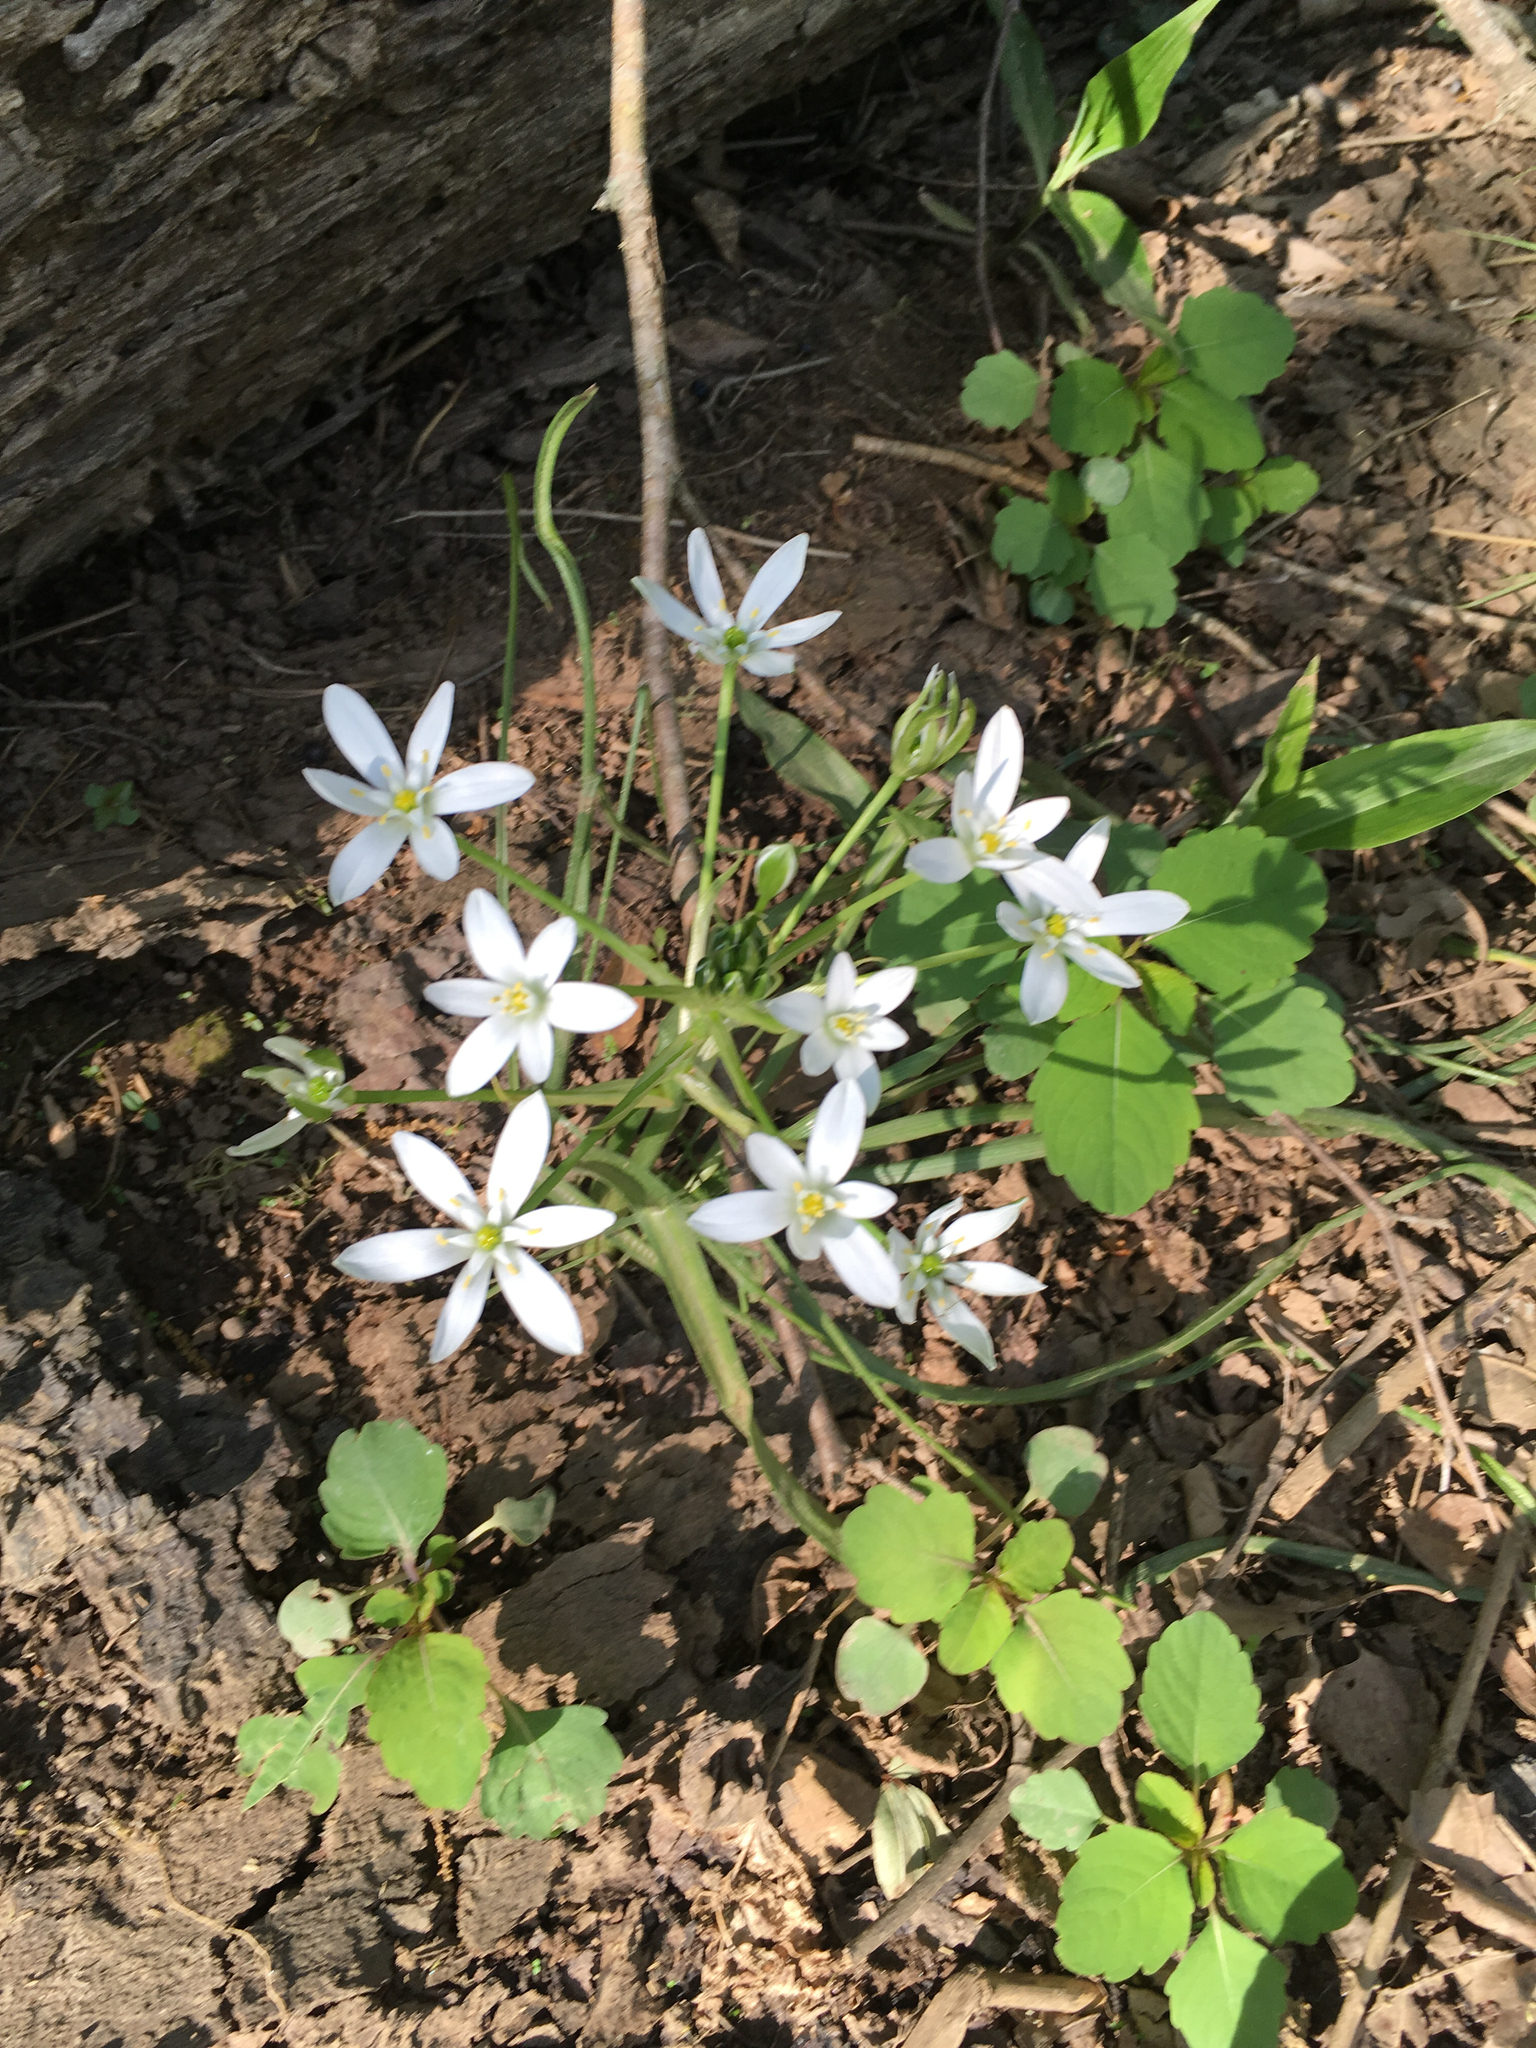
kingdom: Plantae
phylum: Tracheophyta
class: Liliopsida
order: Asparagales
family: Asparagaceae
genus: Ornithogalum
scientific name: Ornithogalum umbellatum
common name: Garden star-of-bethlehem
